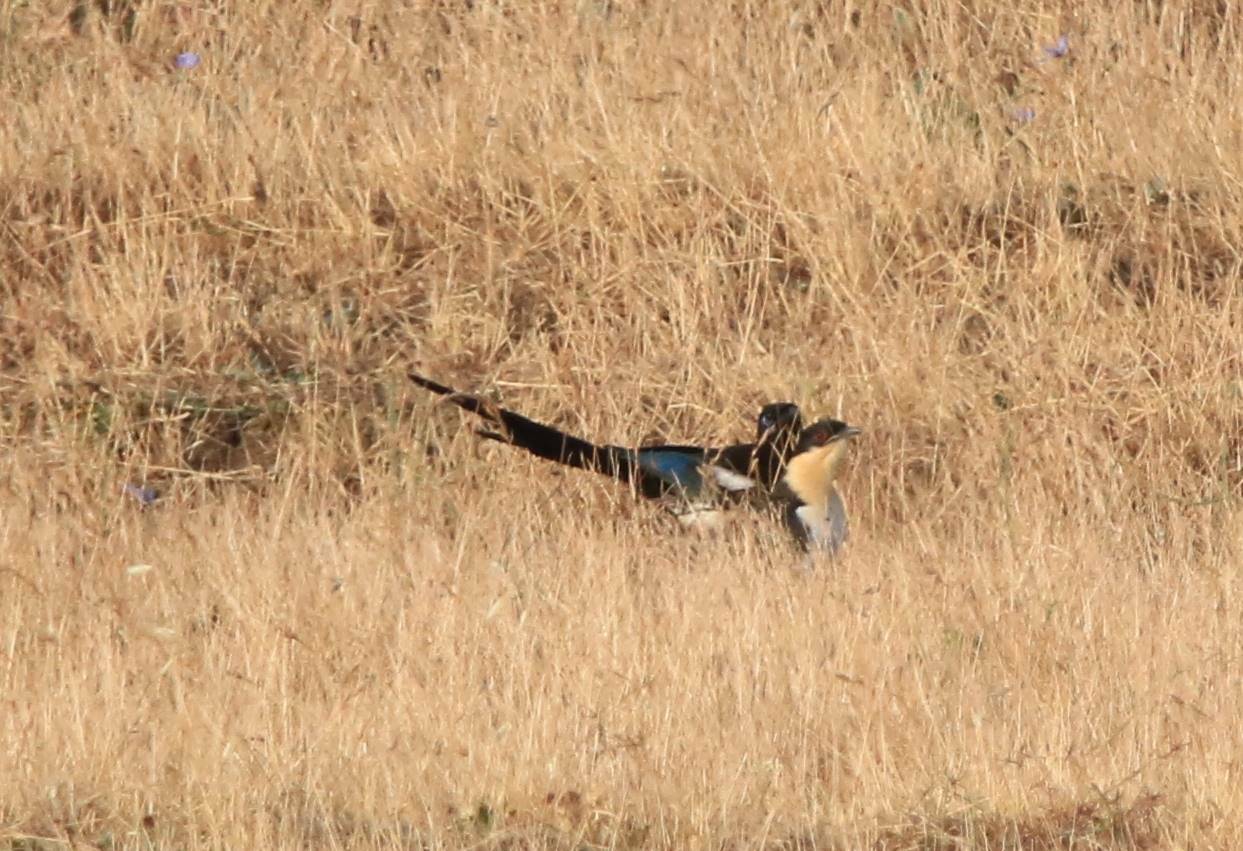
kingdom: Animalia
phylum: Chordata
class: Aves
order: Cuculiformes
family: Cuculidae
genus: Clamator
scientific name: Clamator glandarius
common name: Great spotted cuckoo
